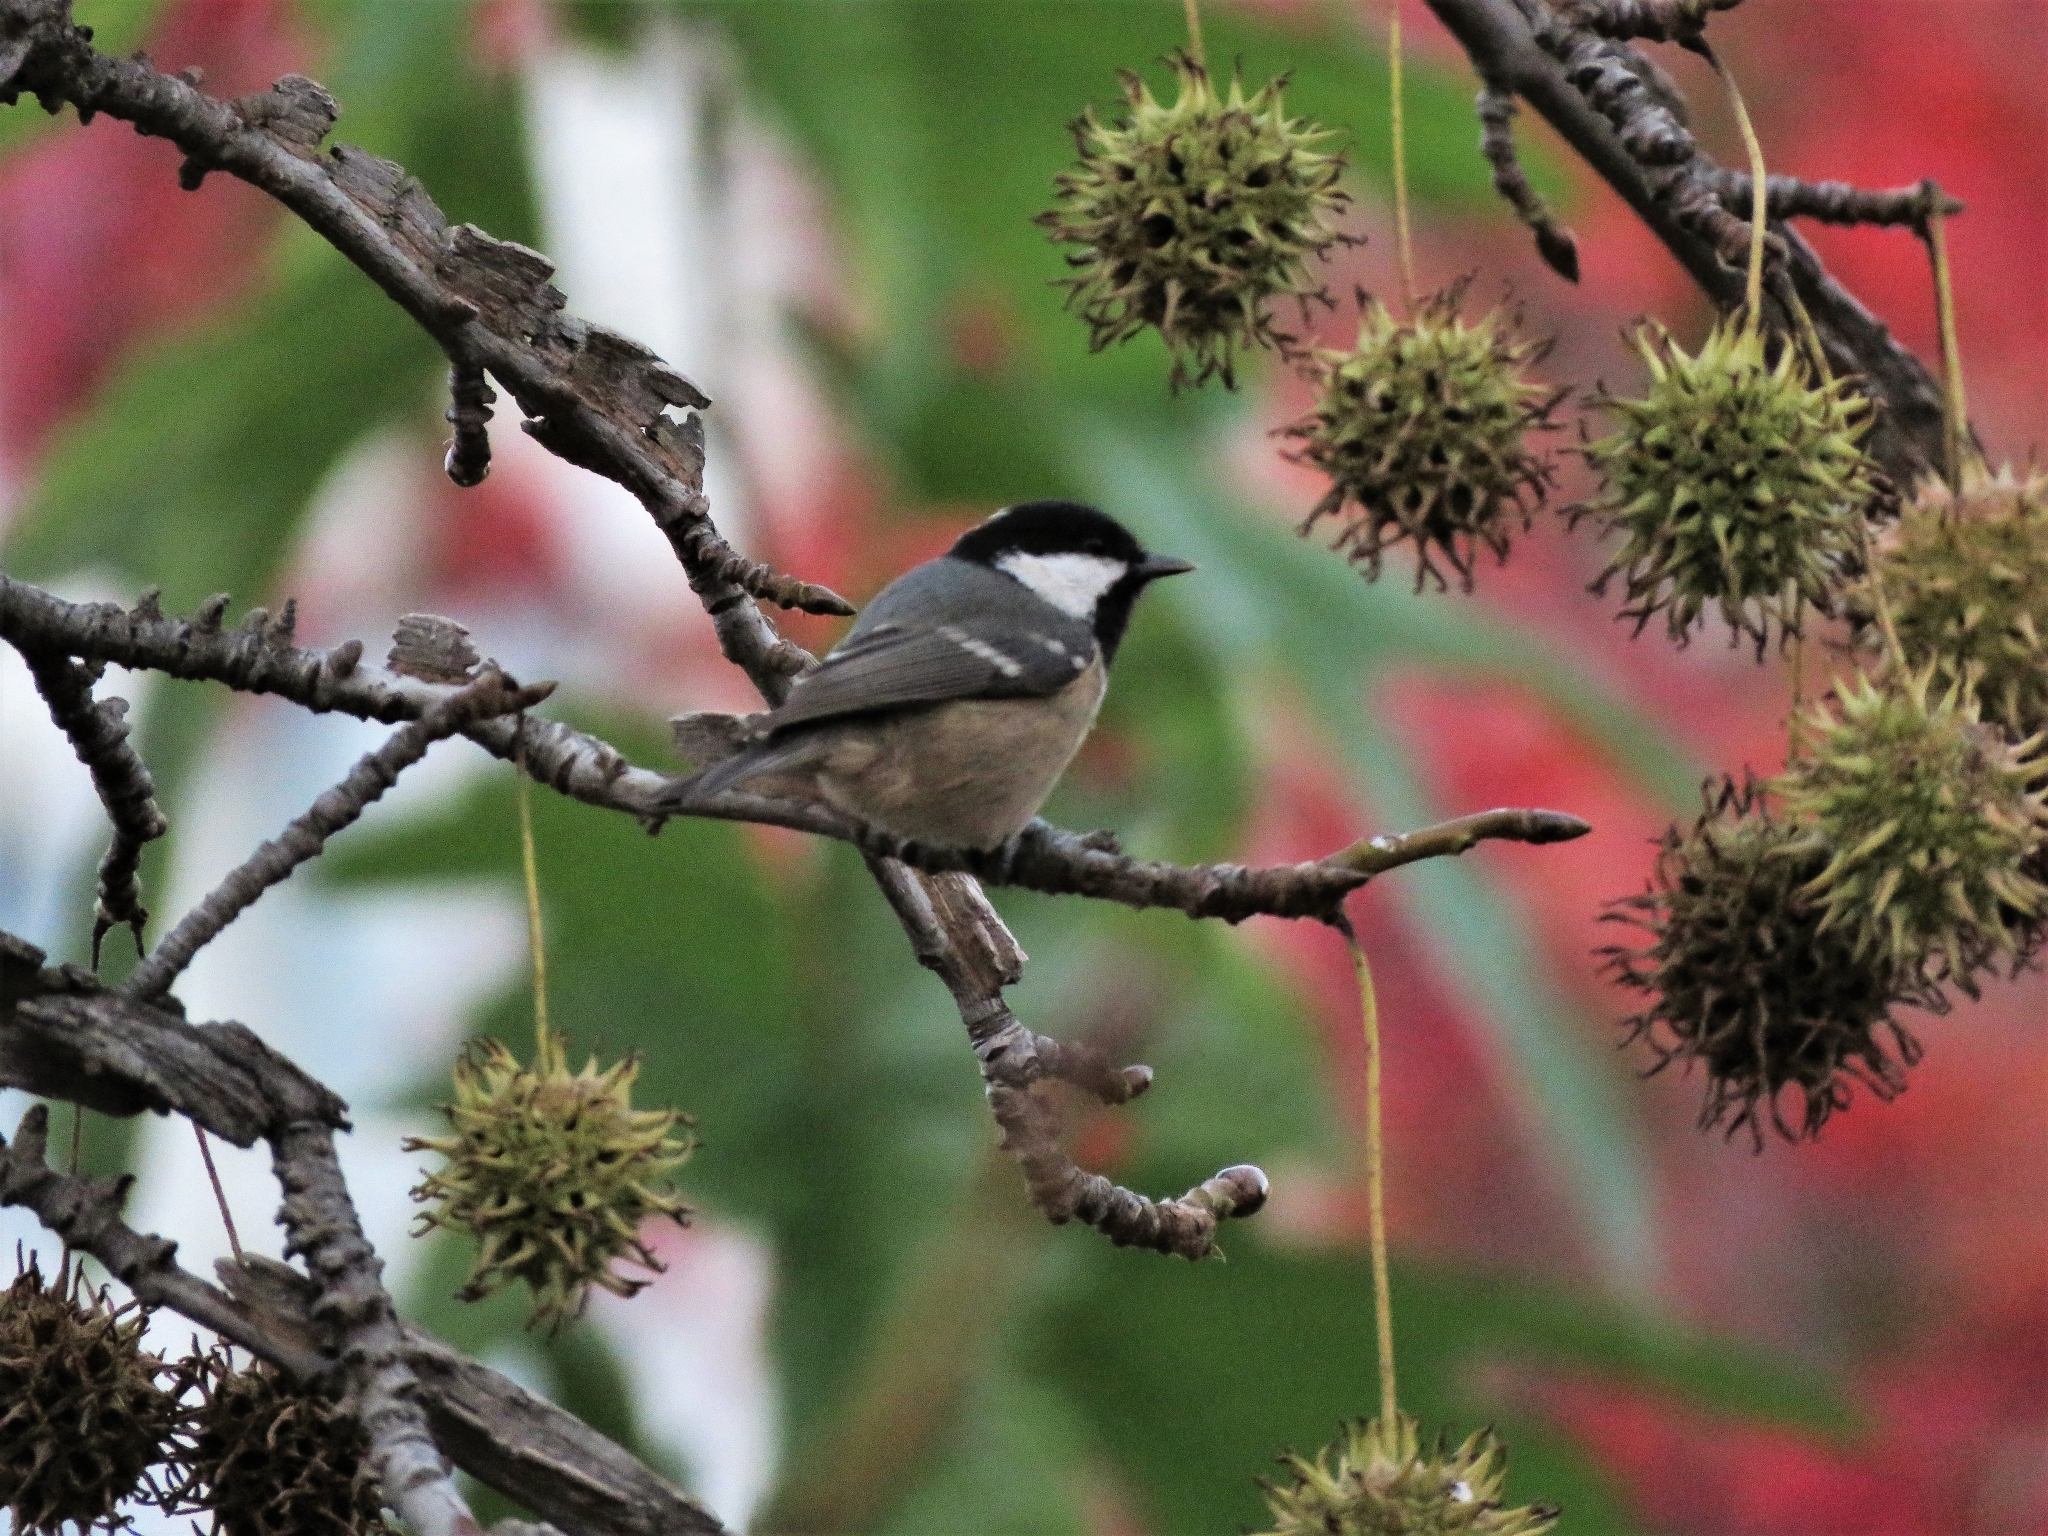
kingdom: Animalia
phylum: Chordata
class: Aves
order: Passeriformes
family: Paridae
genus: Periparus
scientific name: Periparus ater
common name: Coal tit
